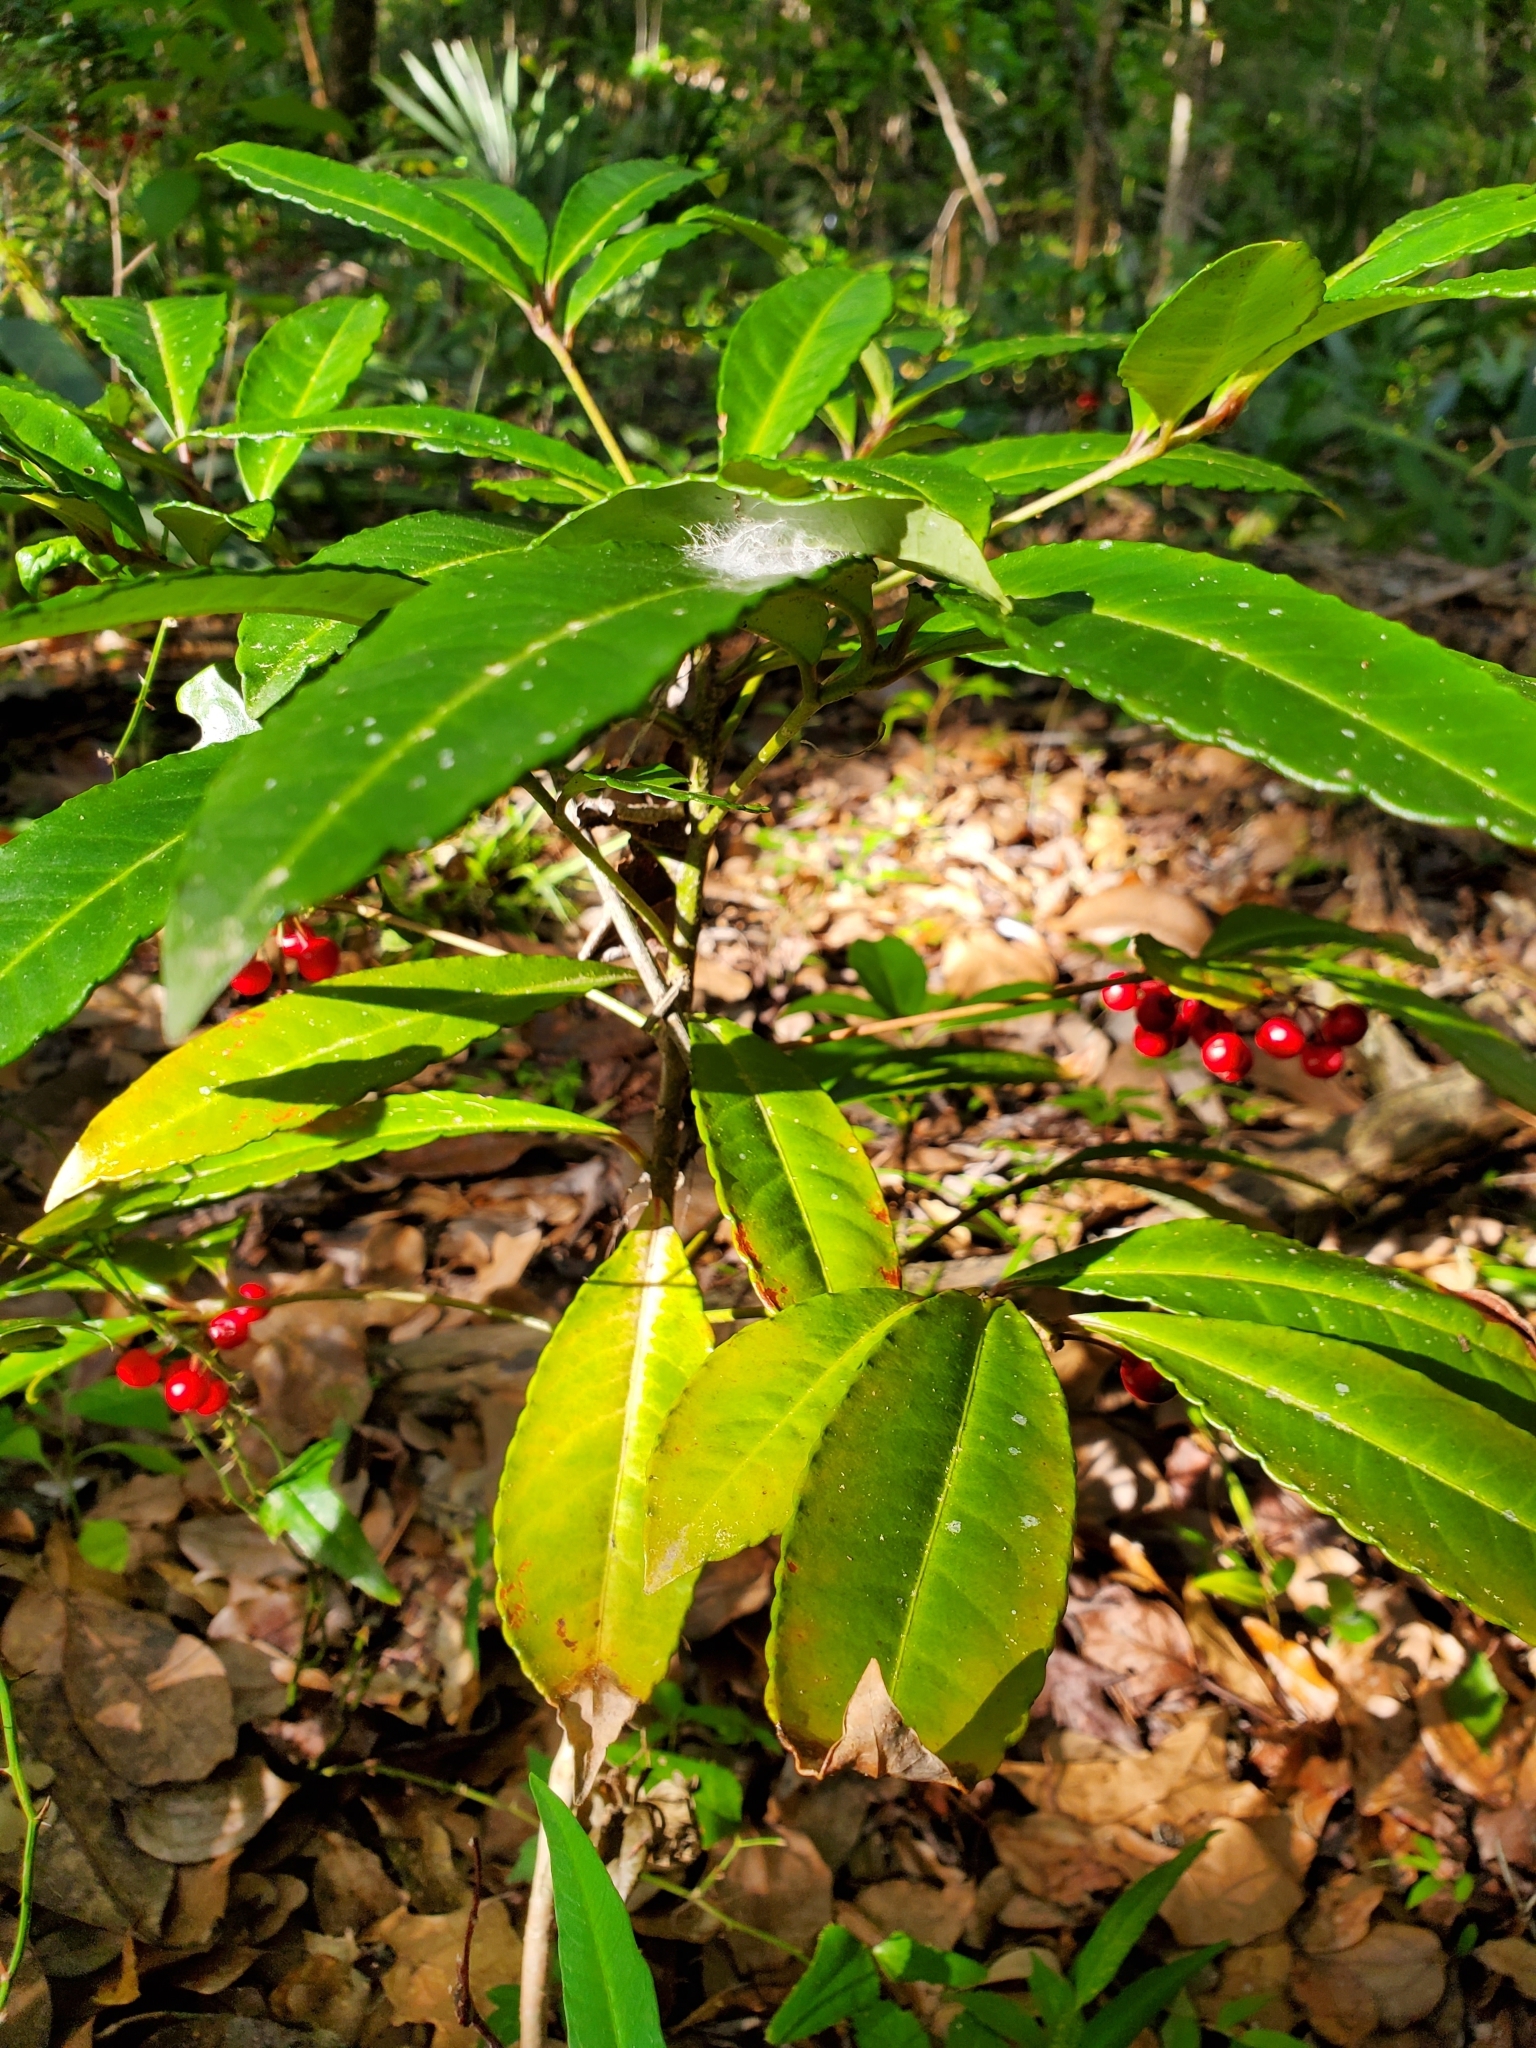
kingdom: Plantae
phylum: Tracheophyta
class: Magnoliopsida
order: Ericales
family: Primulaceae
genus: Ardisia
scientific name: Ardisia crenata
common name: Hen's eyes
